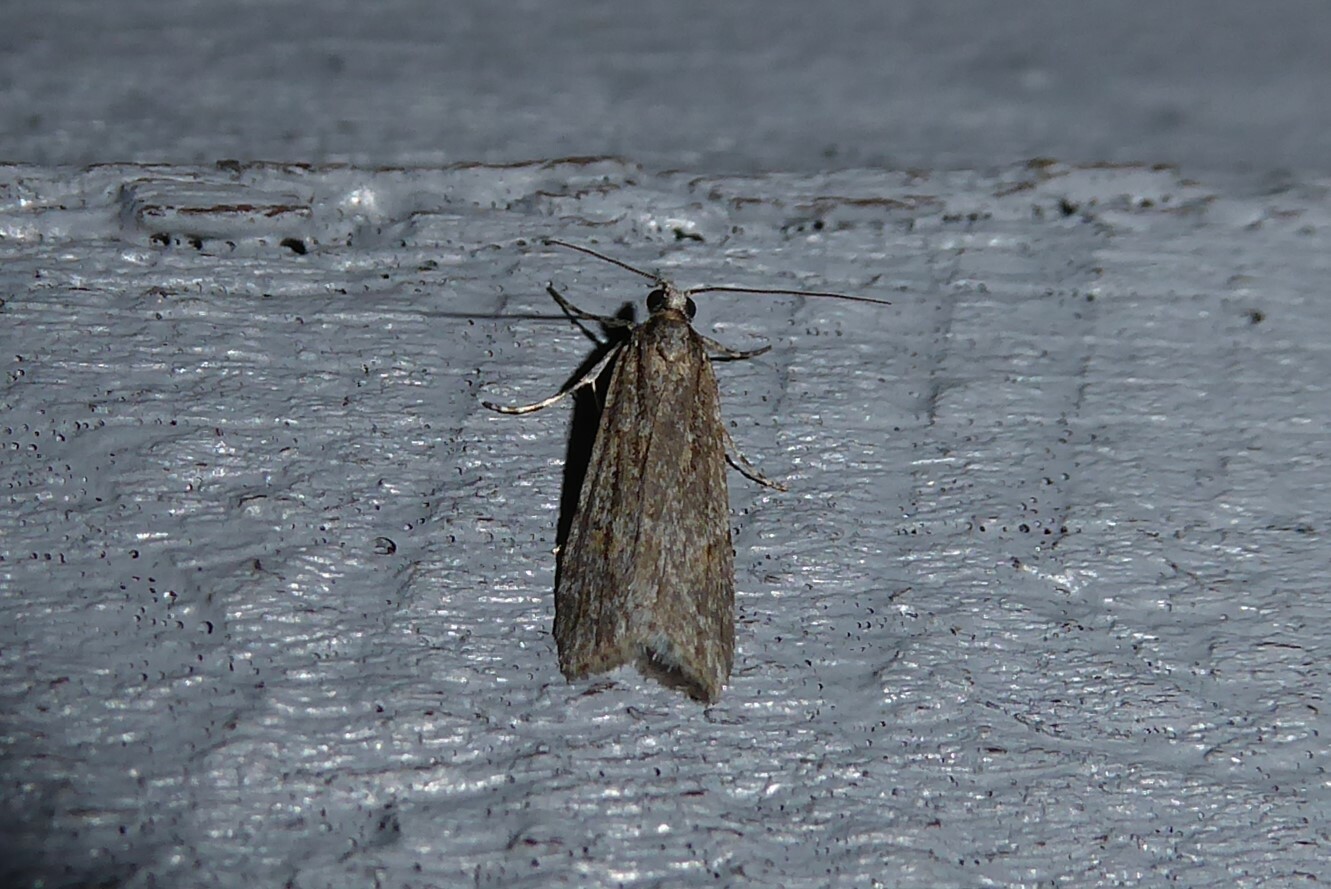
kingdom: Animalia
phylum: Arthropoda
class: Insecta
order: Lepidoptera
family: Crambidae
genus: Scoparia
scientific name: Scoparia chalicodes
